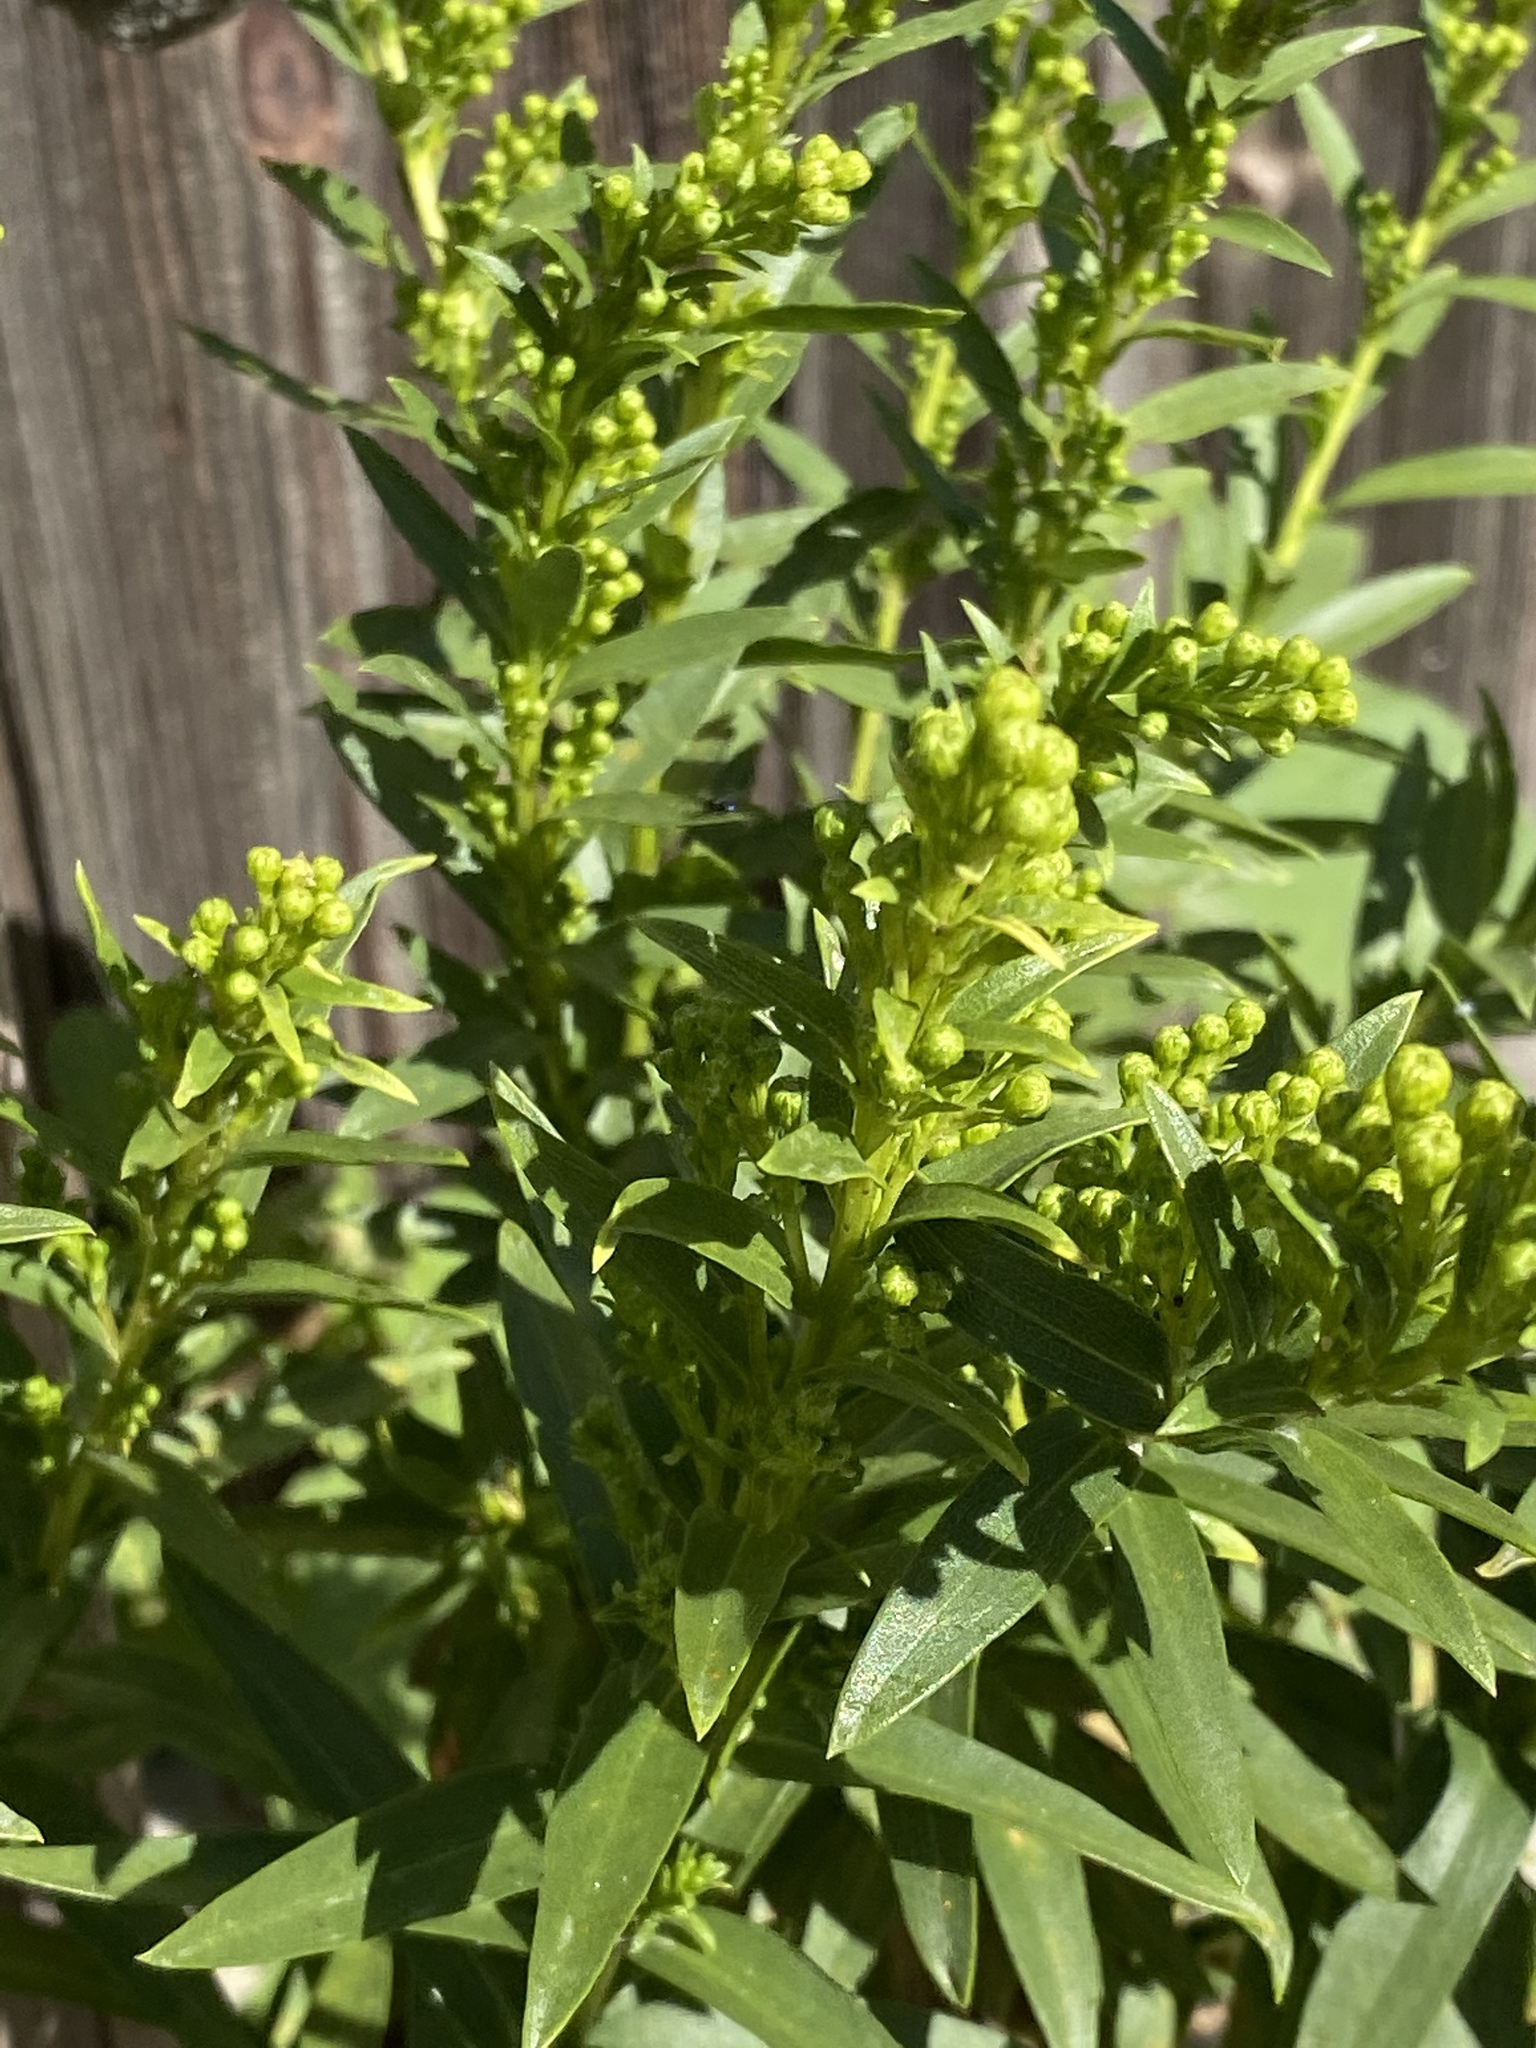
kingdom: Plantae
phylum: Tracheophyta
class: Magnoliopsida
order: Asterales
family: Asteraceae
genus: Solidago
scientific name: Solidago sempervirens
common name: Salt-marsh goldenrod
